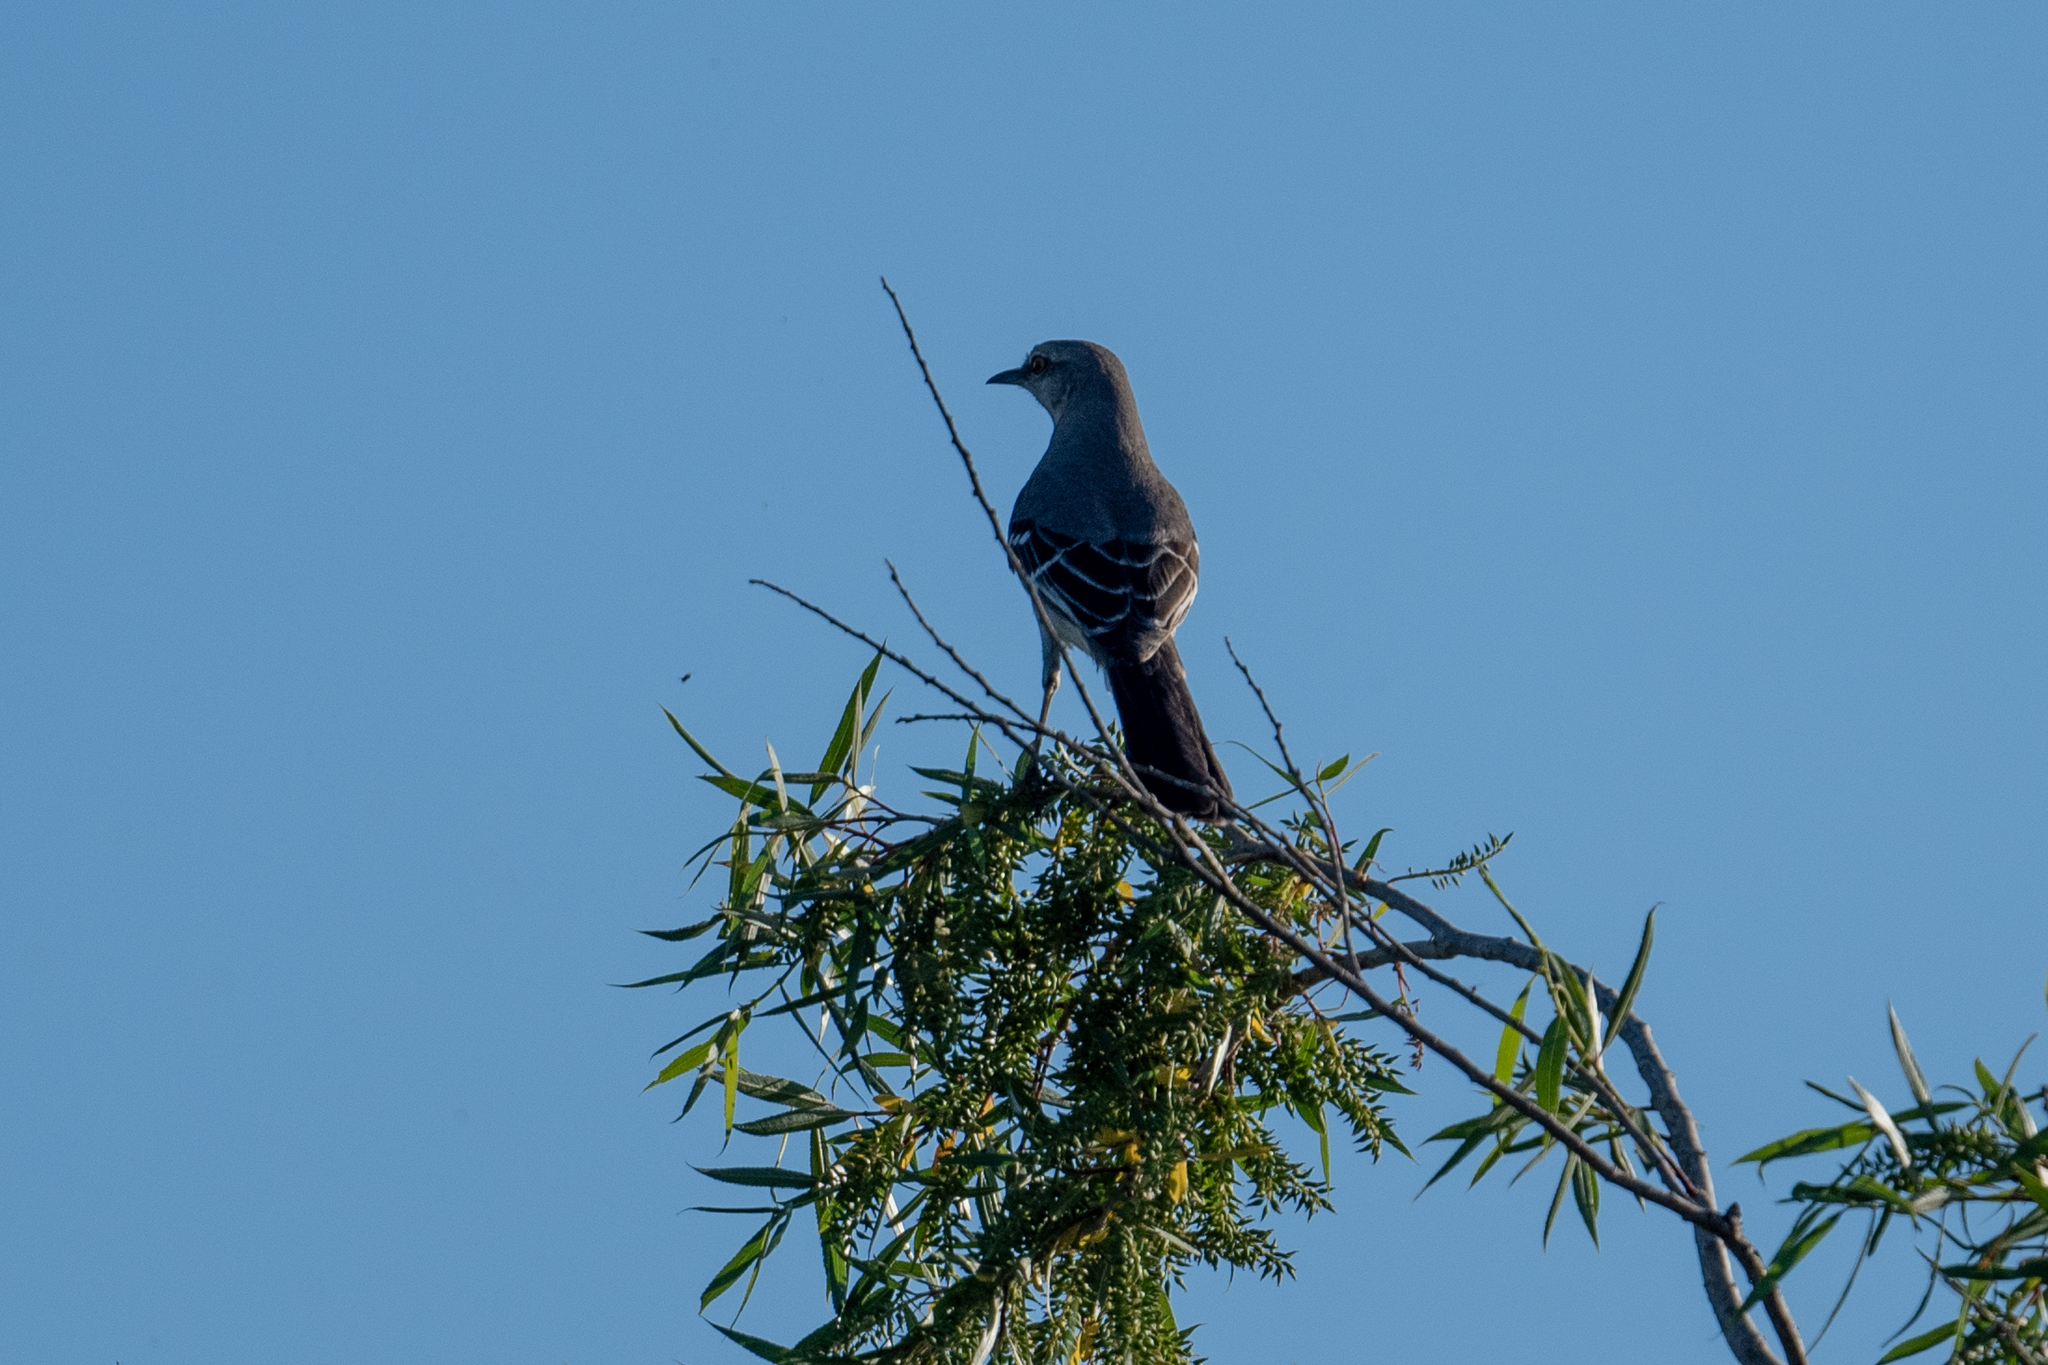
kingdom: Animalia
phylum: Chordata
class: Aves
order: Passeriformes
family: Mimidae
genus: Mimus
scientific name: Mimus polyglottos
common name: Northern mockingbird
